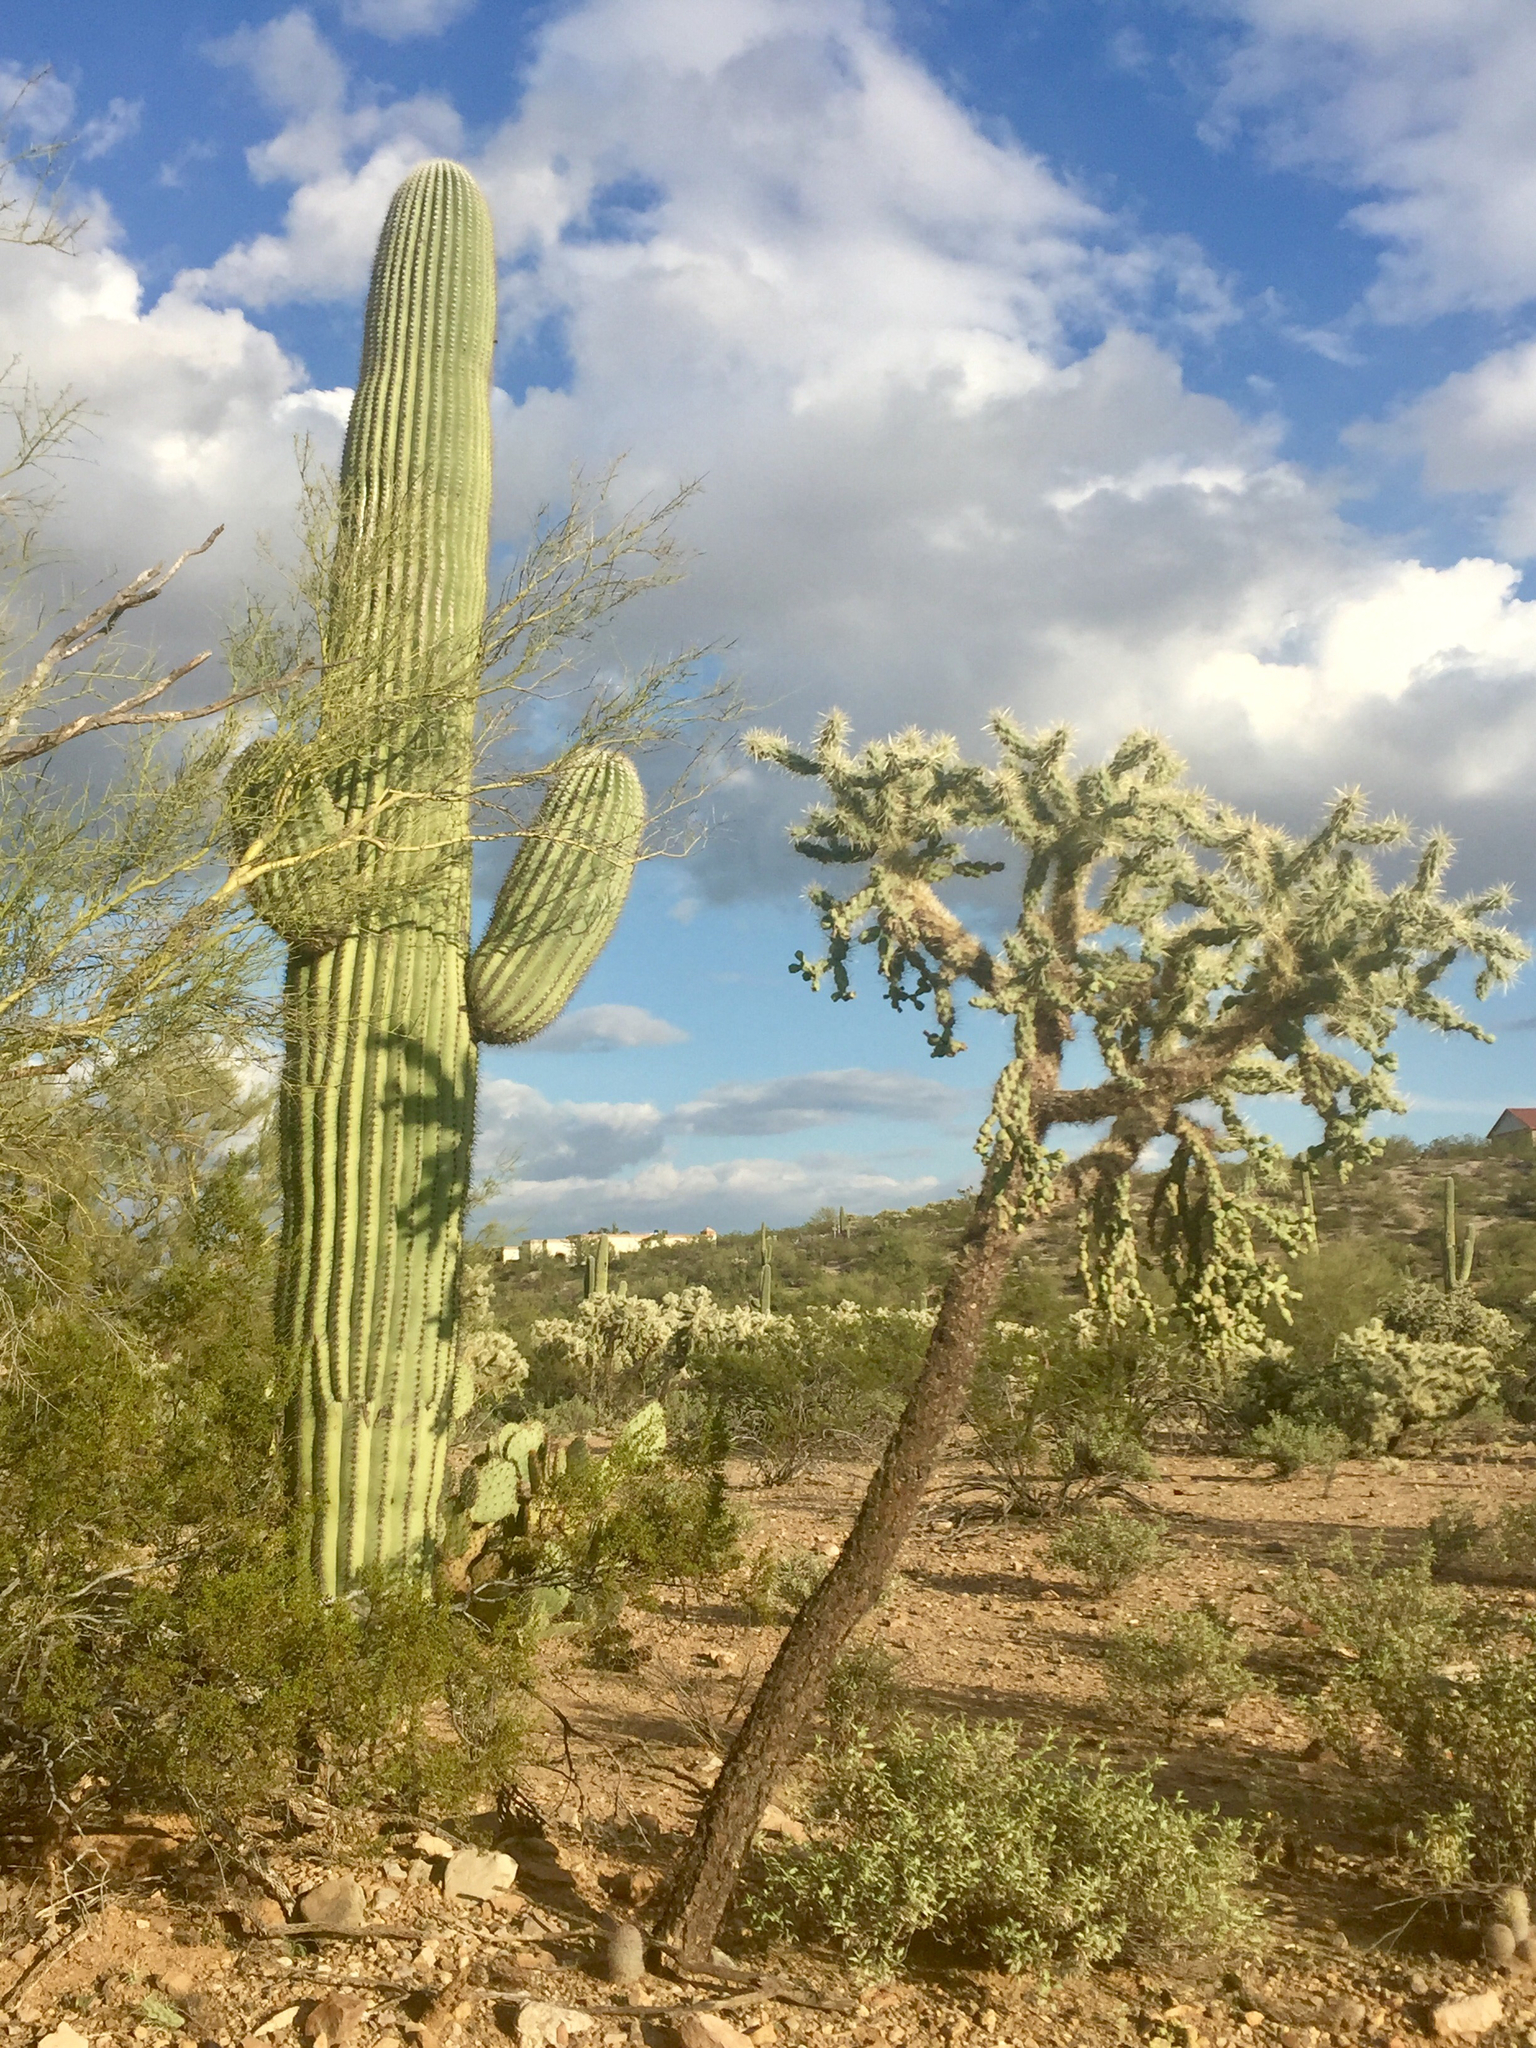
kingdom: Plantae
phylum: Tracheophyta
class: Magnoliopsida
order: Caryophyllales
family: Cactaceae
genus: Carnegiea
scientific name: Carnegiea gigantea
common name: Saguaro
